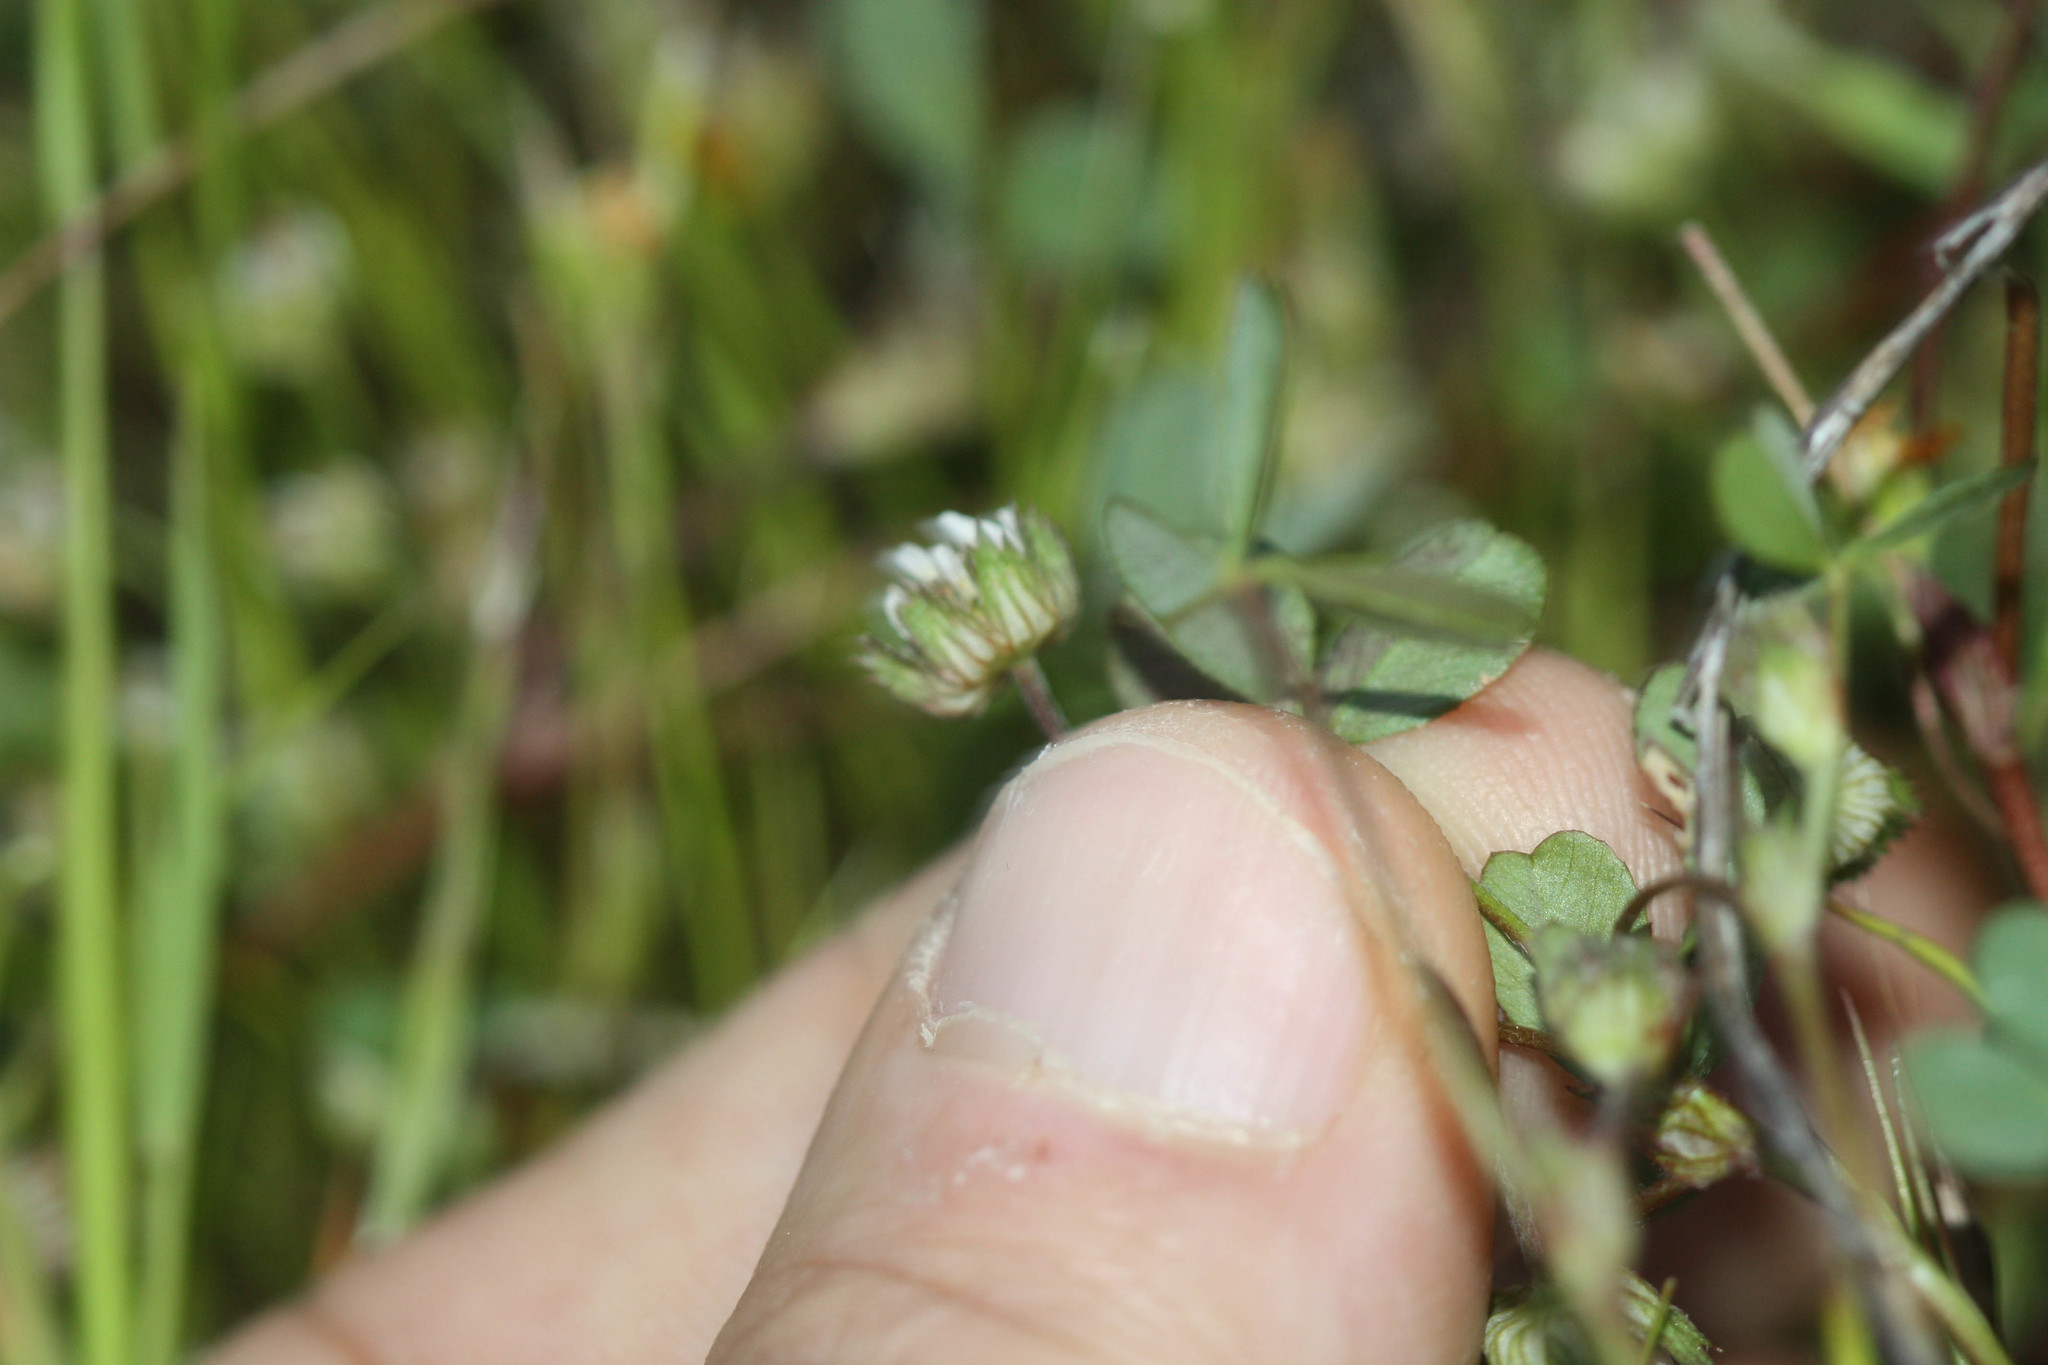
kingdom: Plantae
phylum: Tracheophyta
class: Magnoliopsida
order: Fabales
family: Fabaceae
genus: Trifolium
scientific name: Trifolium microdon
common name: Thimble clover
